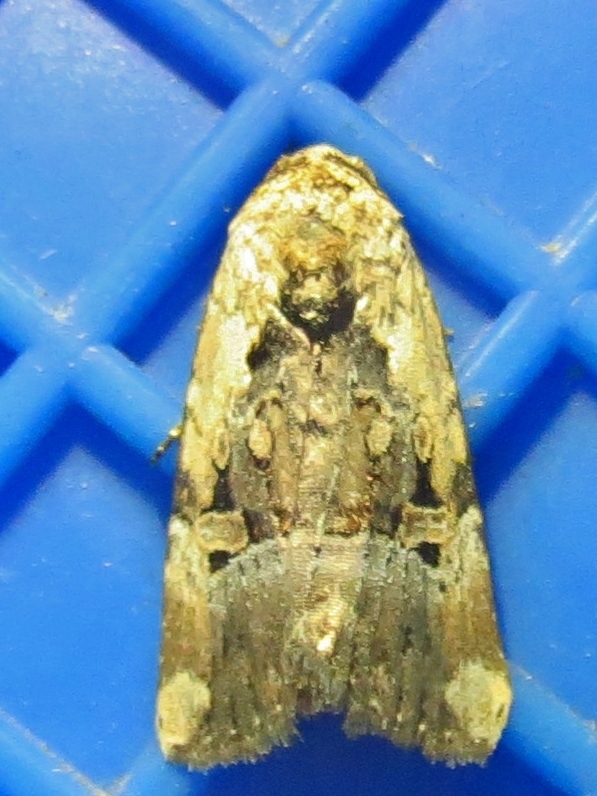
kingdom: Animalia
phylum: Arthropoda
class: Insecta
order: Lepidoptera
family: Noctuidae
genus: Elaphria
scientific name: Elaphria chalcedonia
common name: Chalcedony midget
